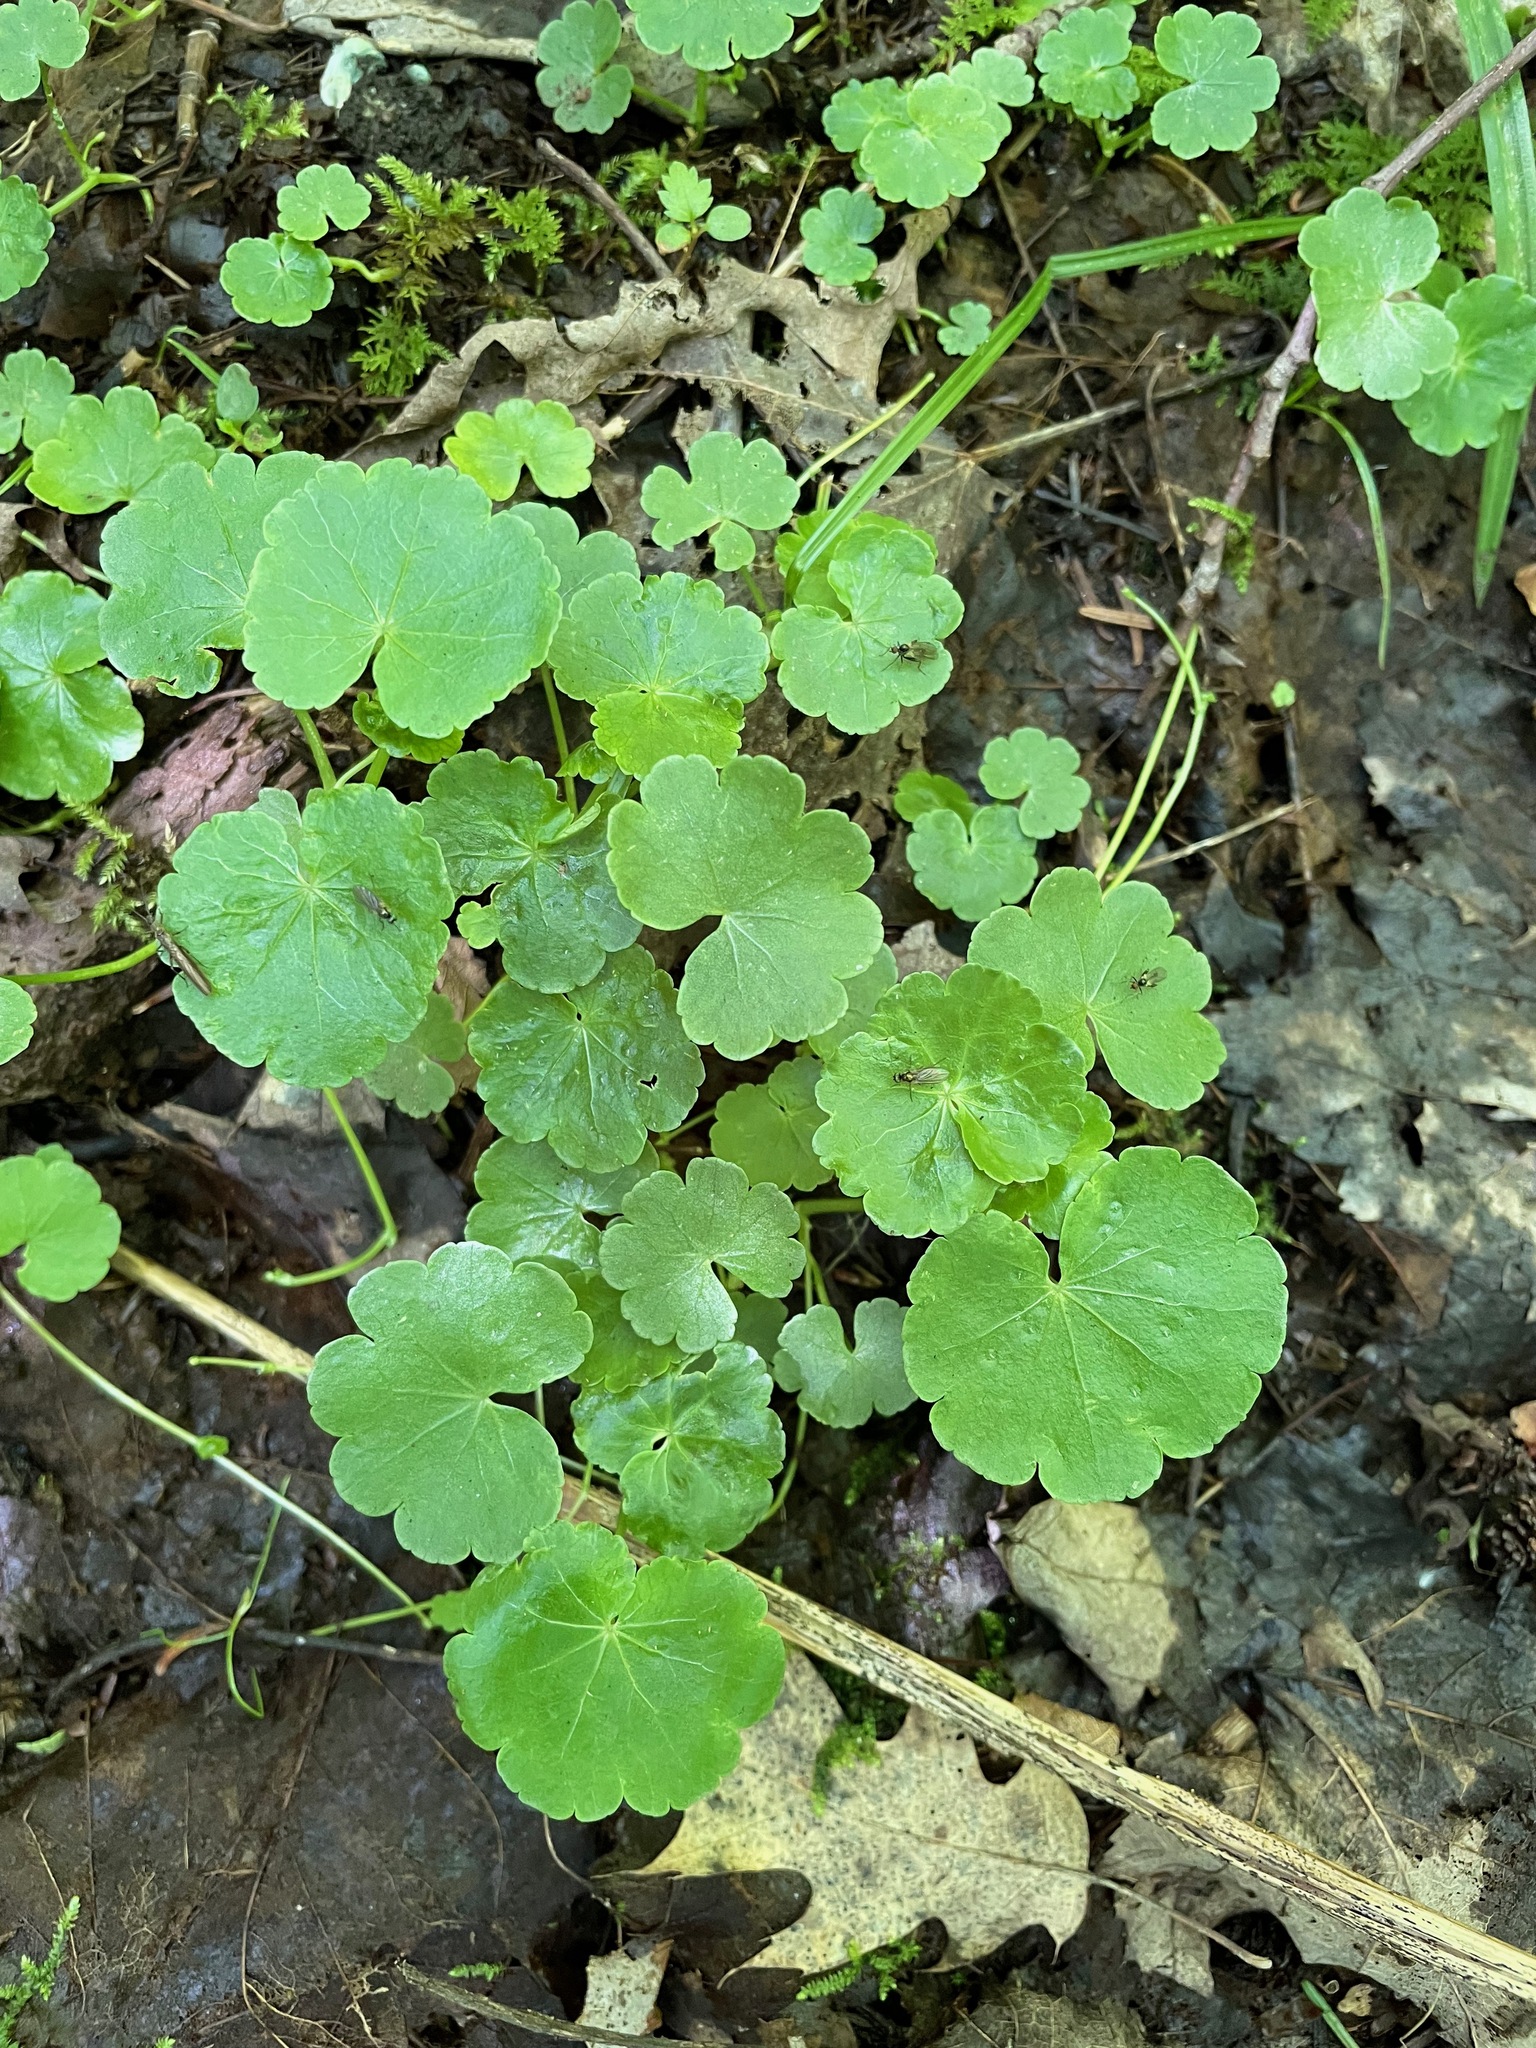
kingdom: Plantae
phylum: Tracheophyta
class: Magnoliopsida
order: Apiales
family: Araliaceae
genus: Hydrocotyle
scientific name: Hydrocotyle americana
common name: American water-pennywort
